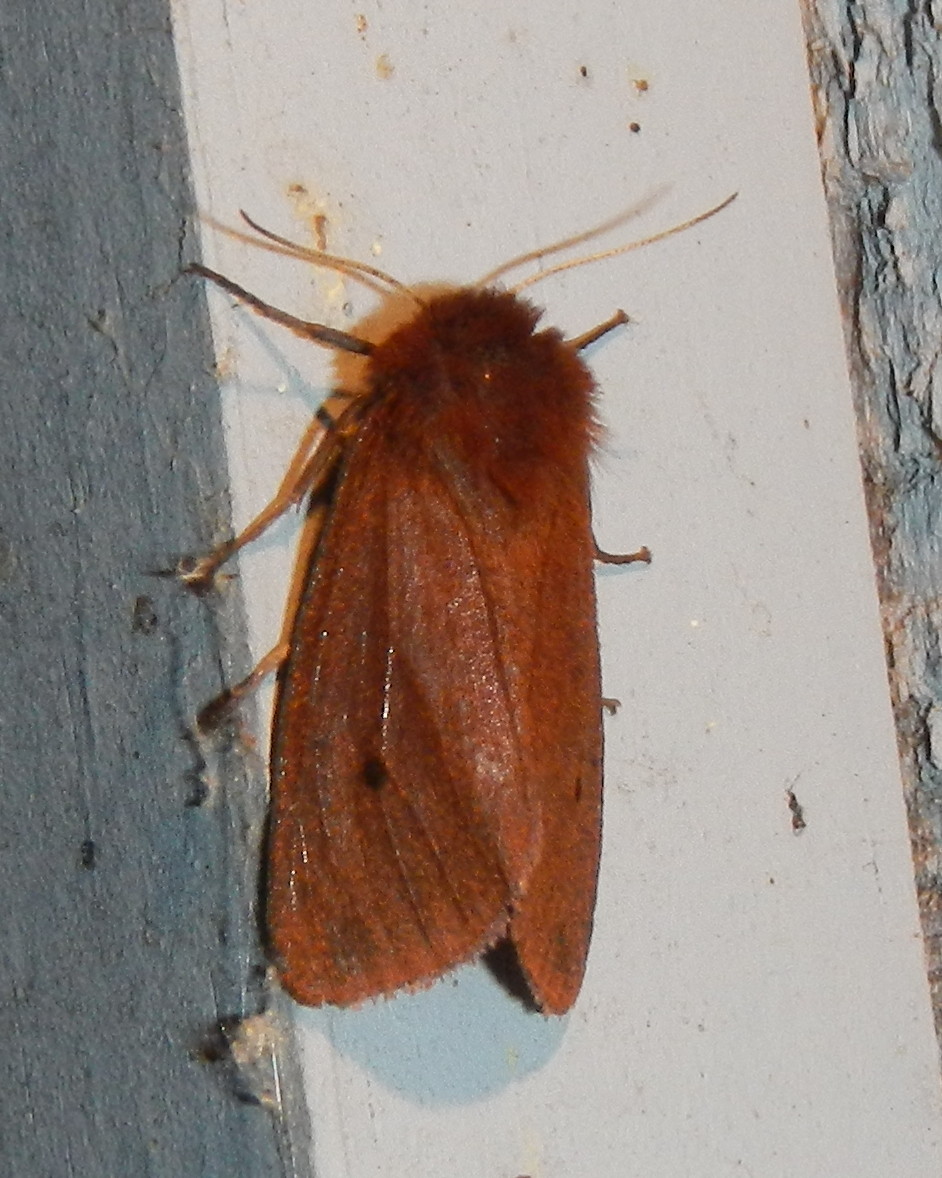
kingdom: Animalia
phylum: Arthropoda
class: Insecta
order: Lepidoptera
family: Erebidae
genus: Phragmatobia
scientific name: Phragmatobia fuliginosa
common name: Ruby tiger
